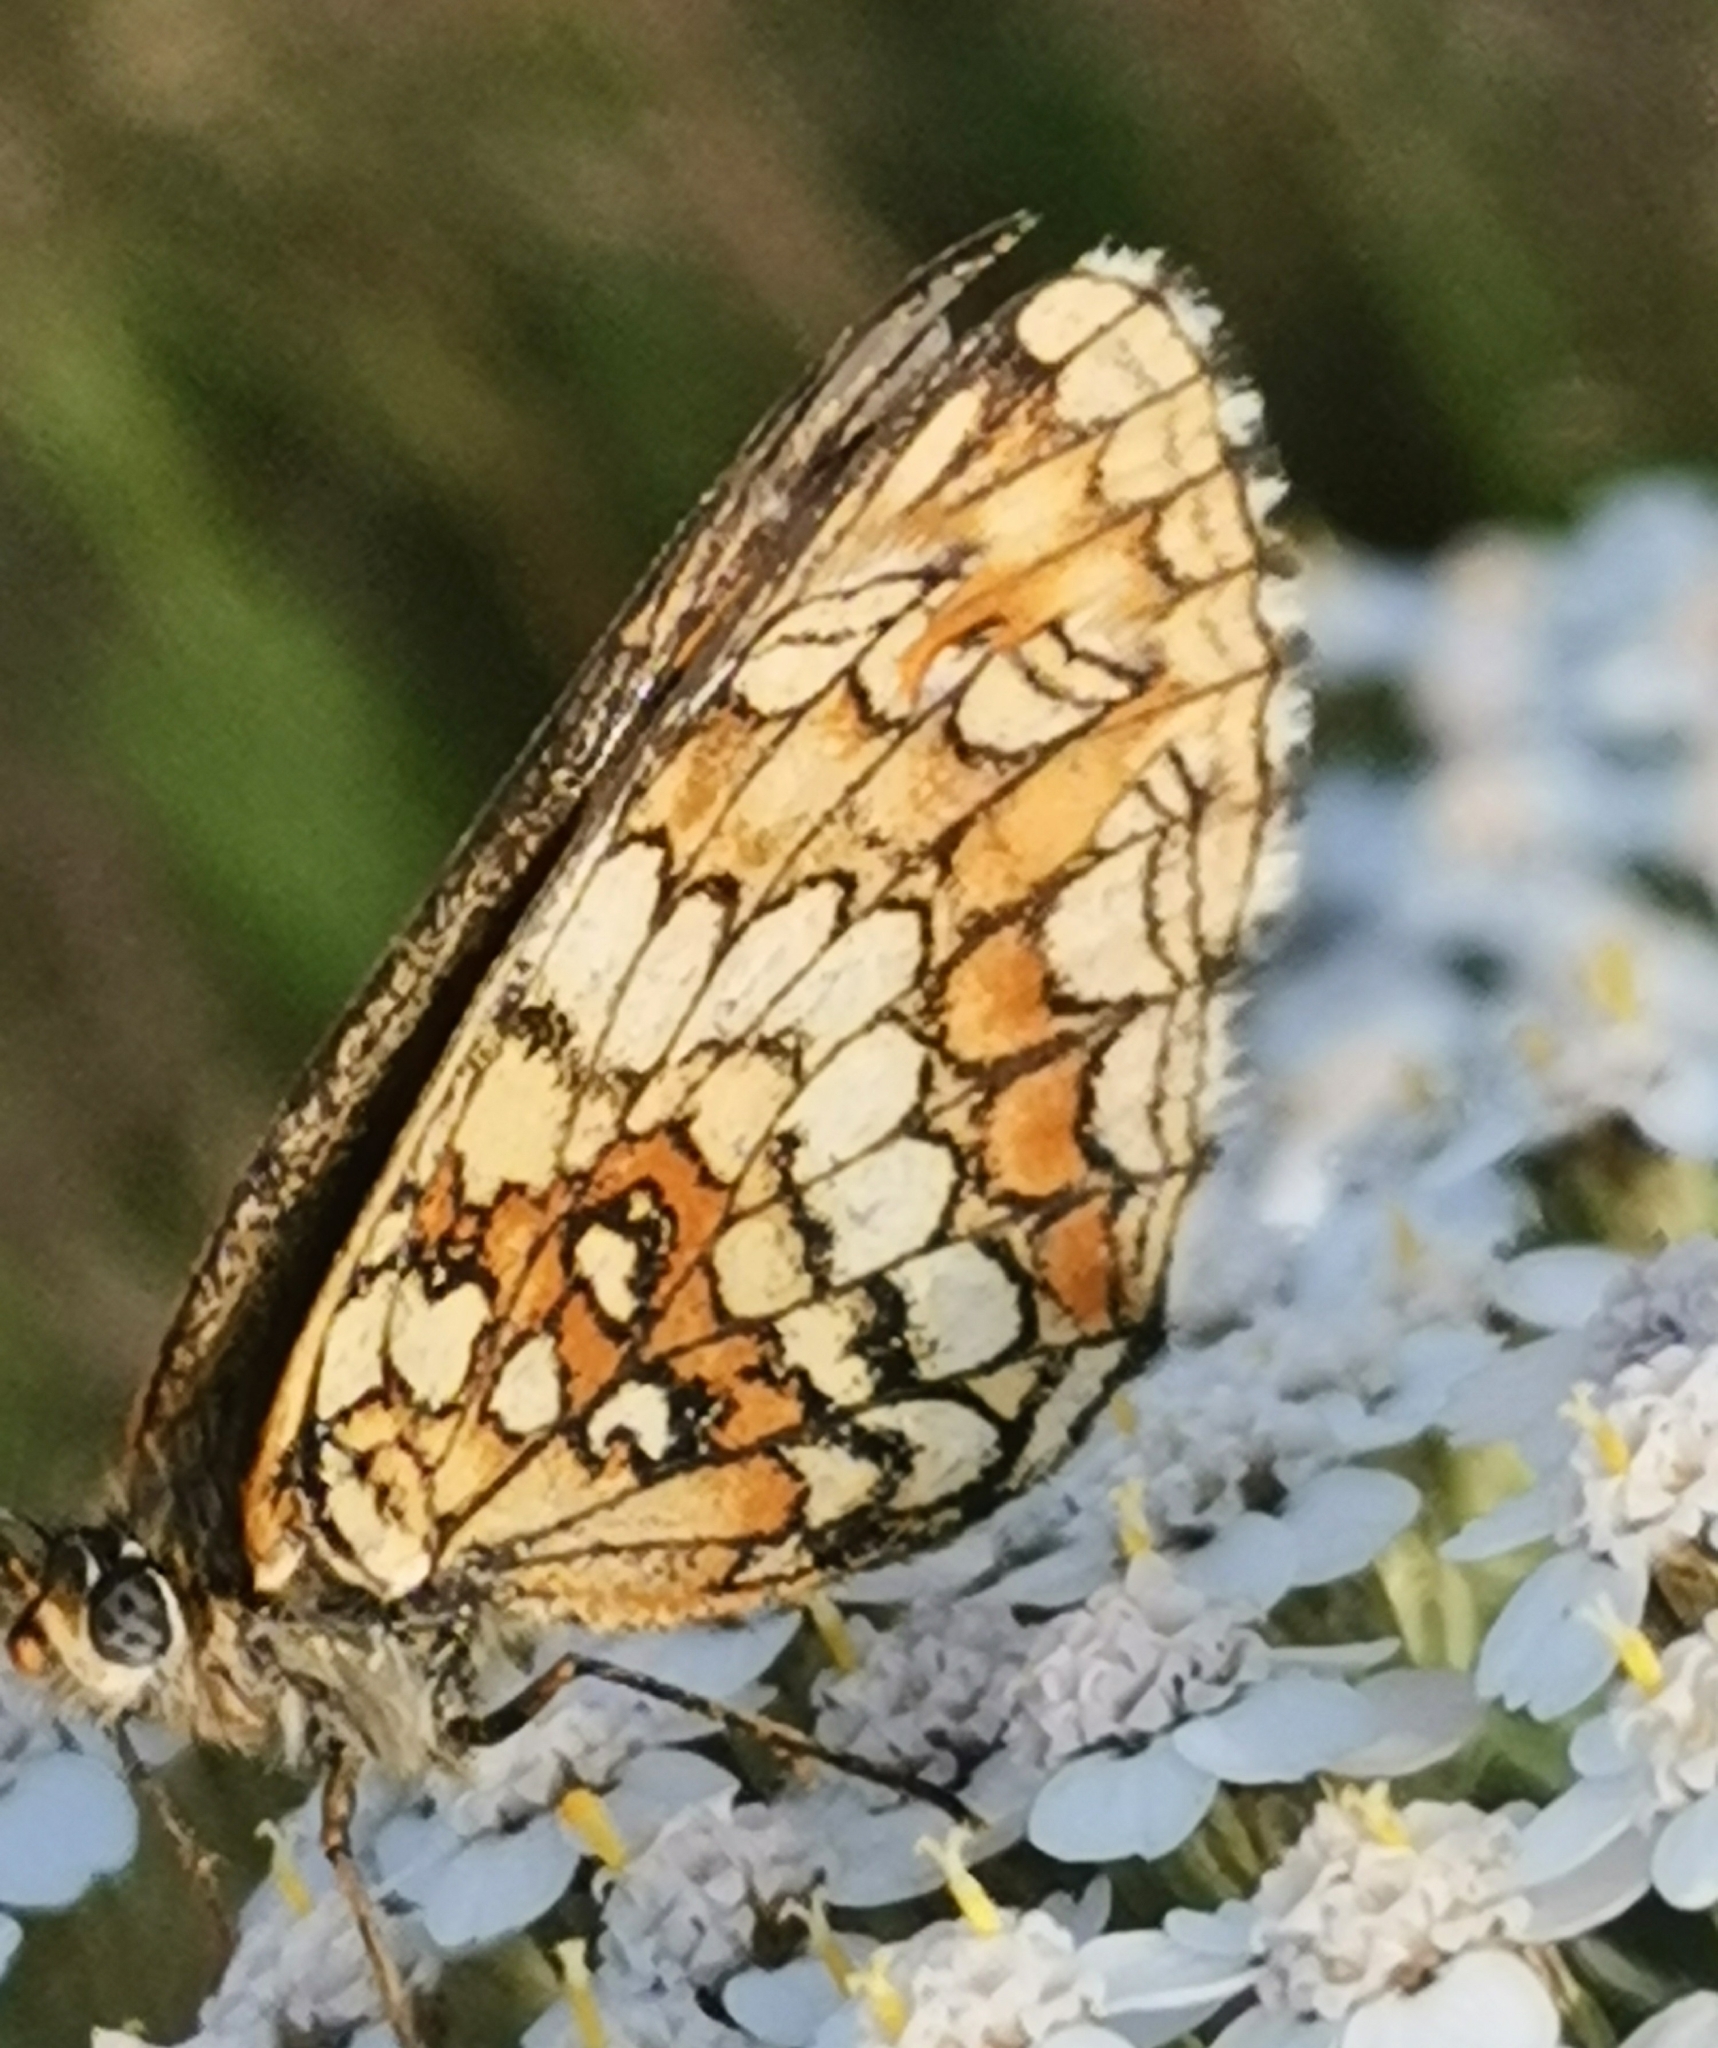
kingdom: Animalia
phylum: Arthropoda
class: Insecta
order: Lepidoptera
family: Nymphalidae
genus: Melitaea
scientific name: Melitaea athalia
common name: Heath fritillary
